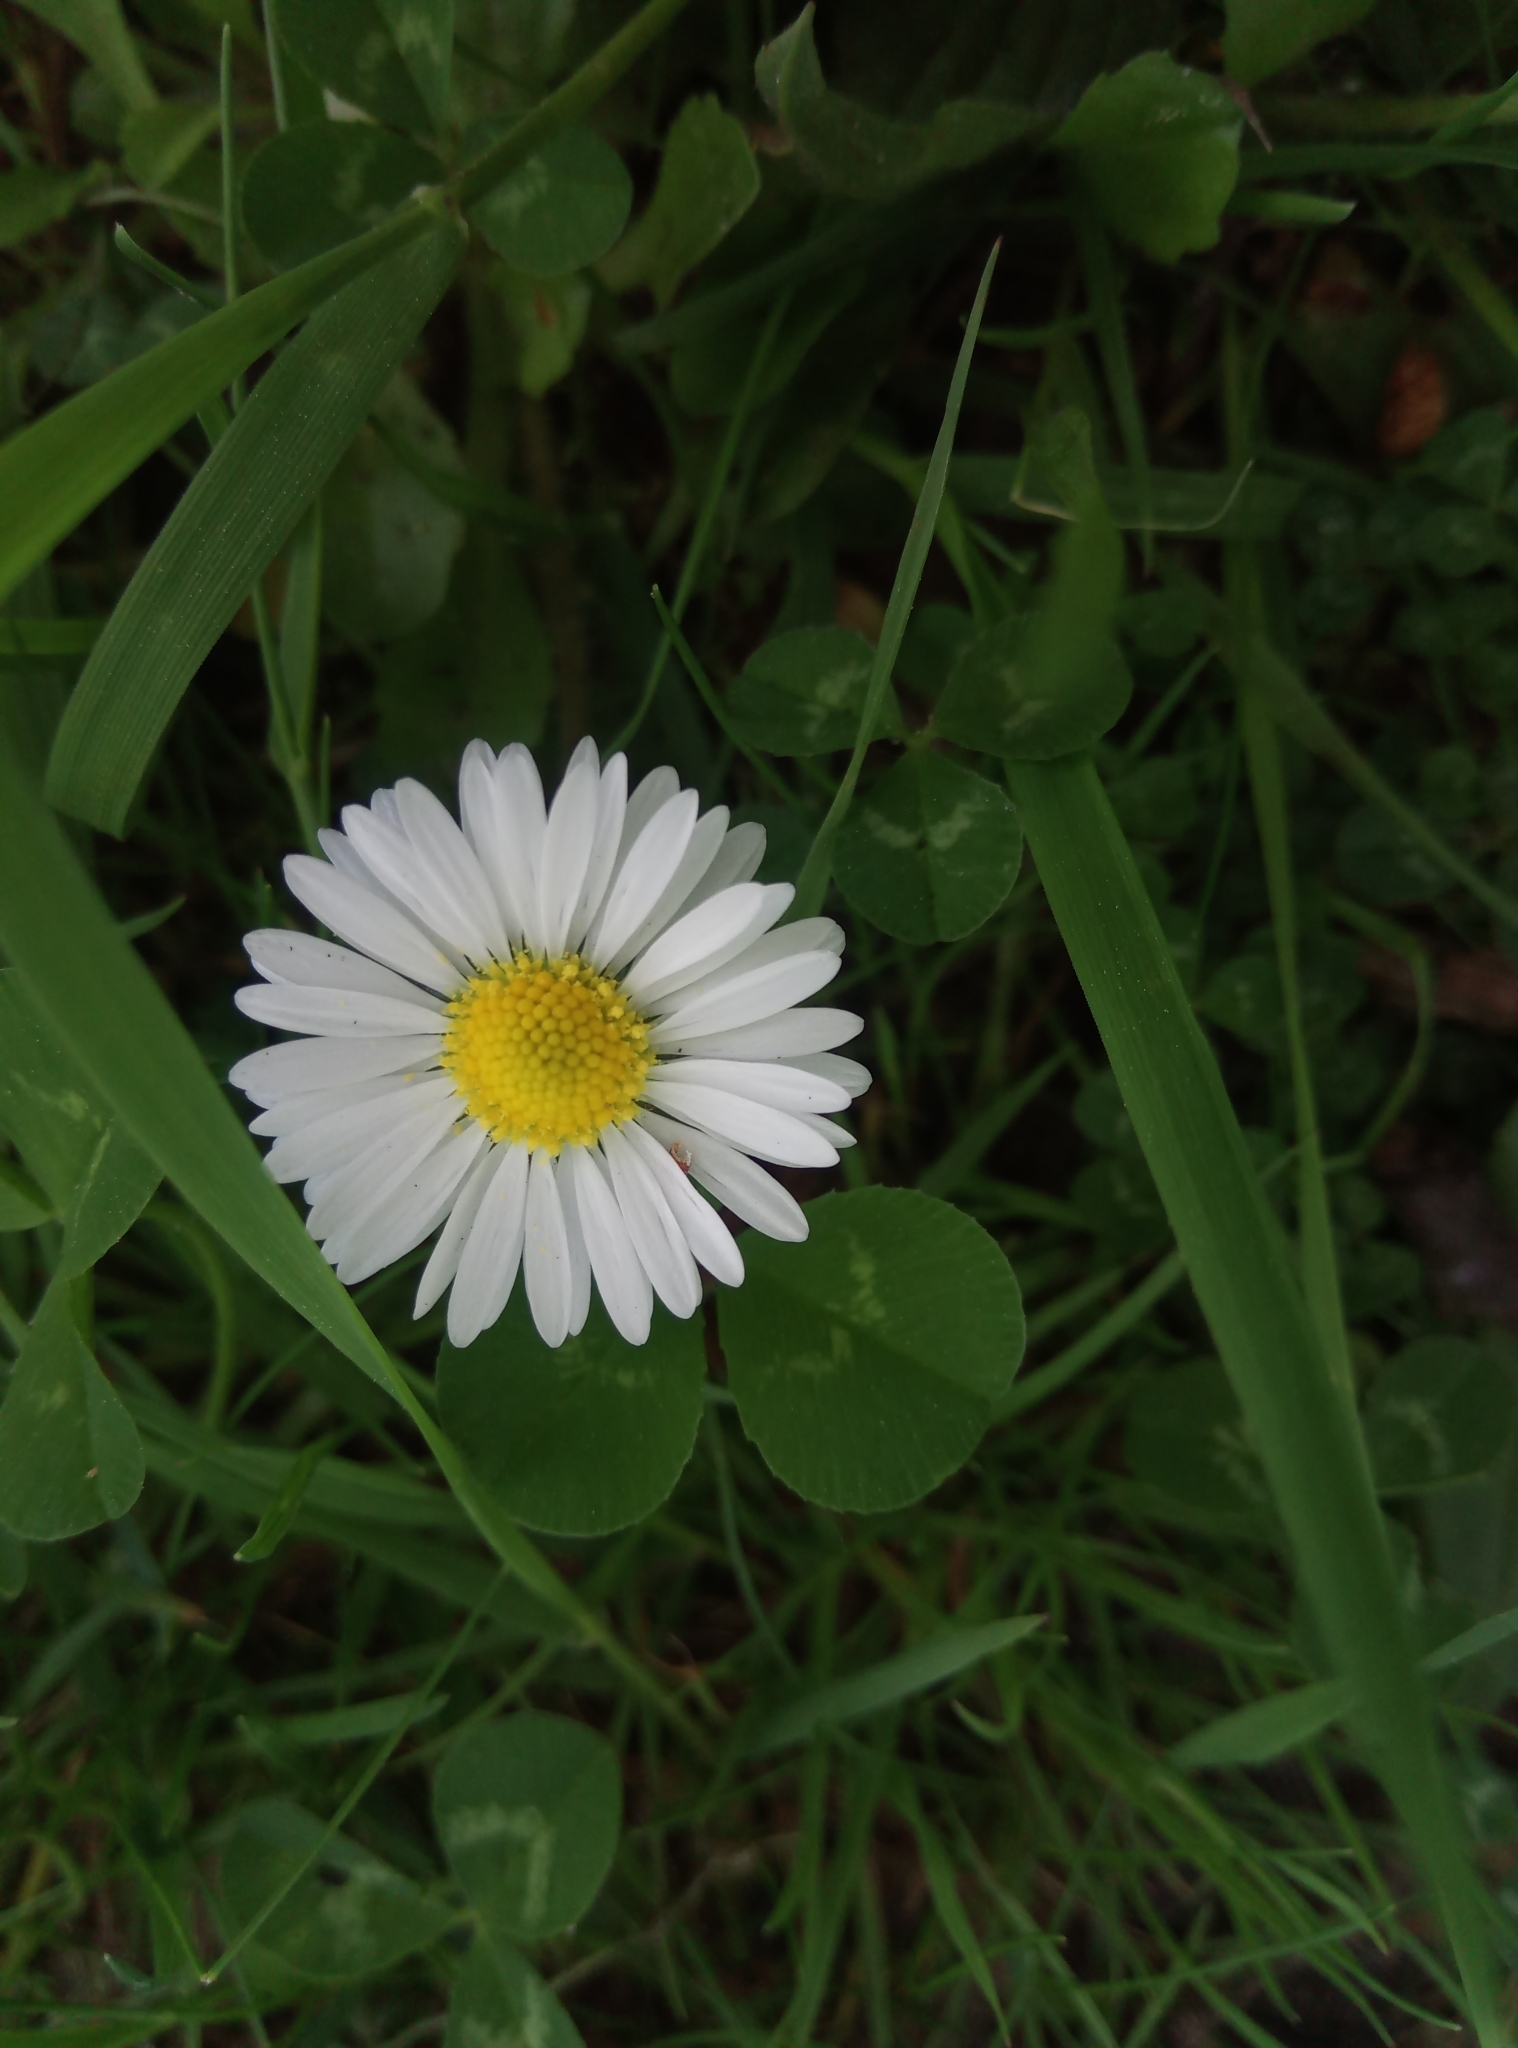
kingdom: Plantae
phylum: Tracheophyta
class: Magnoliopsida
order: Asterales
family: Asteraceae
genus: Bellis
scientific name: Bellis perennis
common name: Lawndaisy
